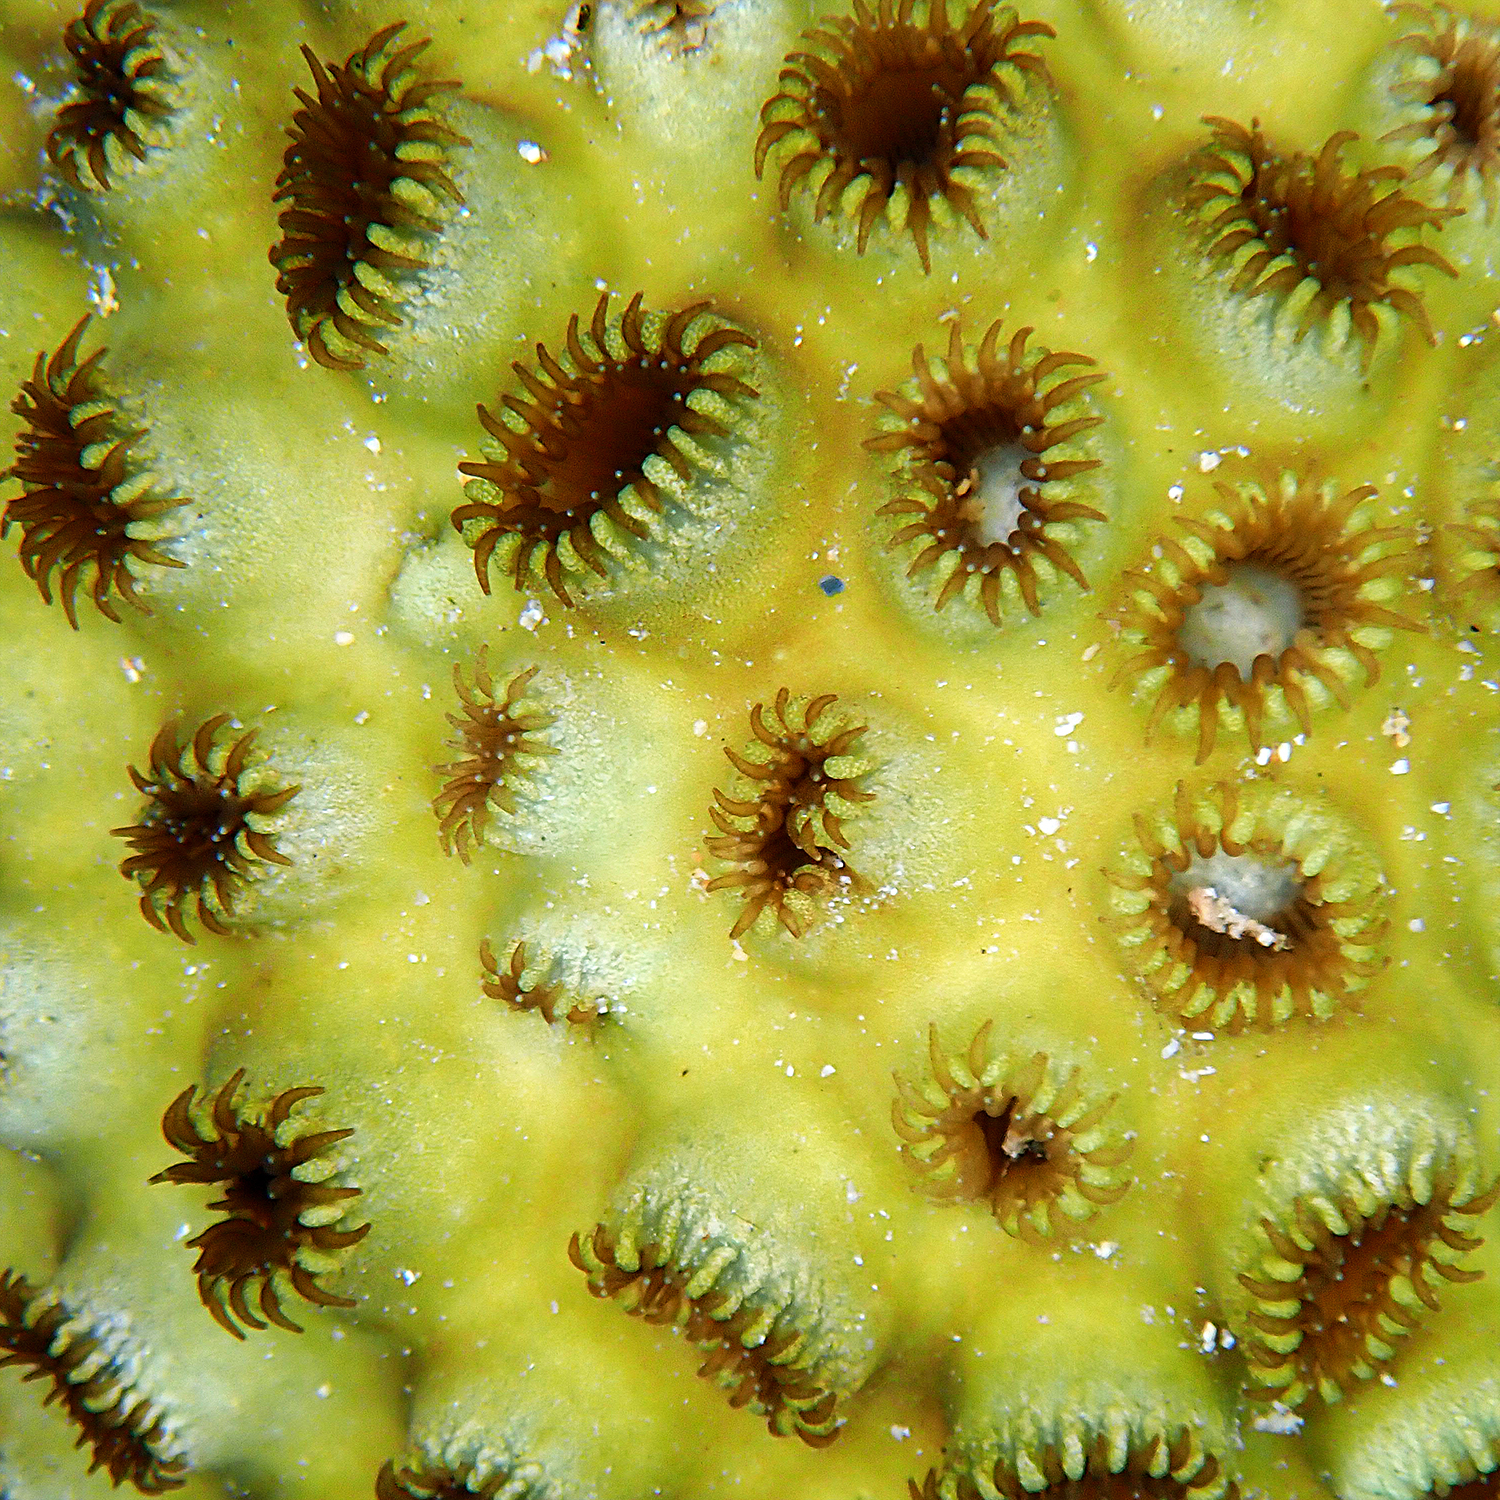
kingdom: Animalia
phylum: Cnidaria
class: Anthozoa
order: Zoantharia
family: Sphenopidae
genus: Palythoa
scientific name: Palythoa tuberculosa
